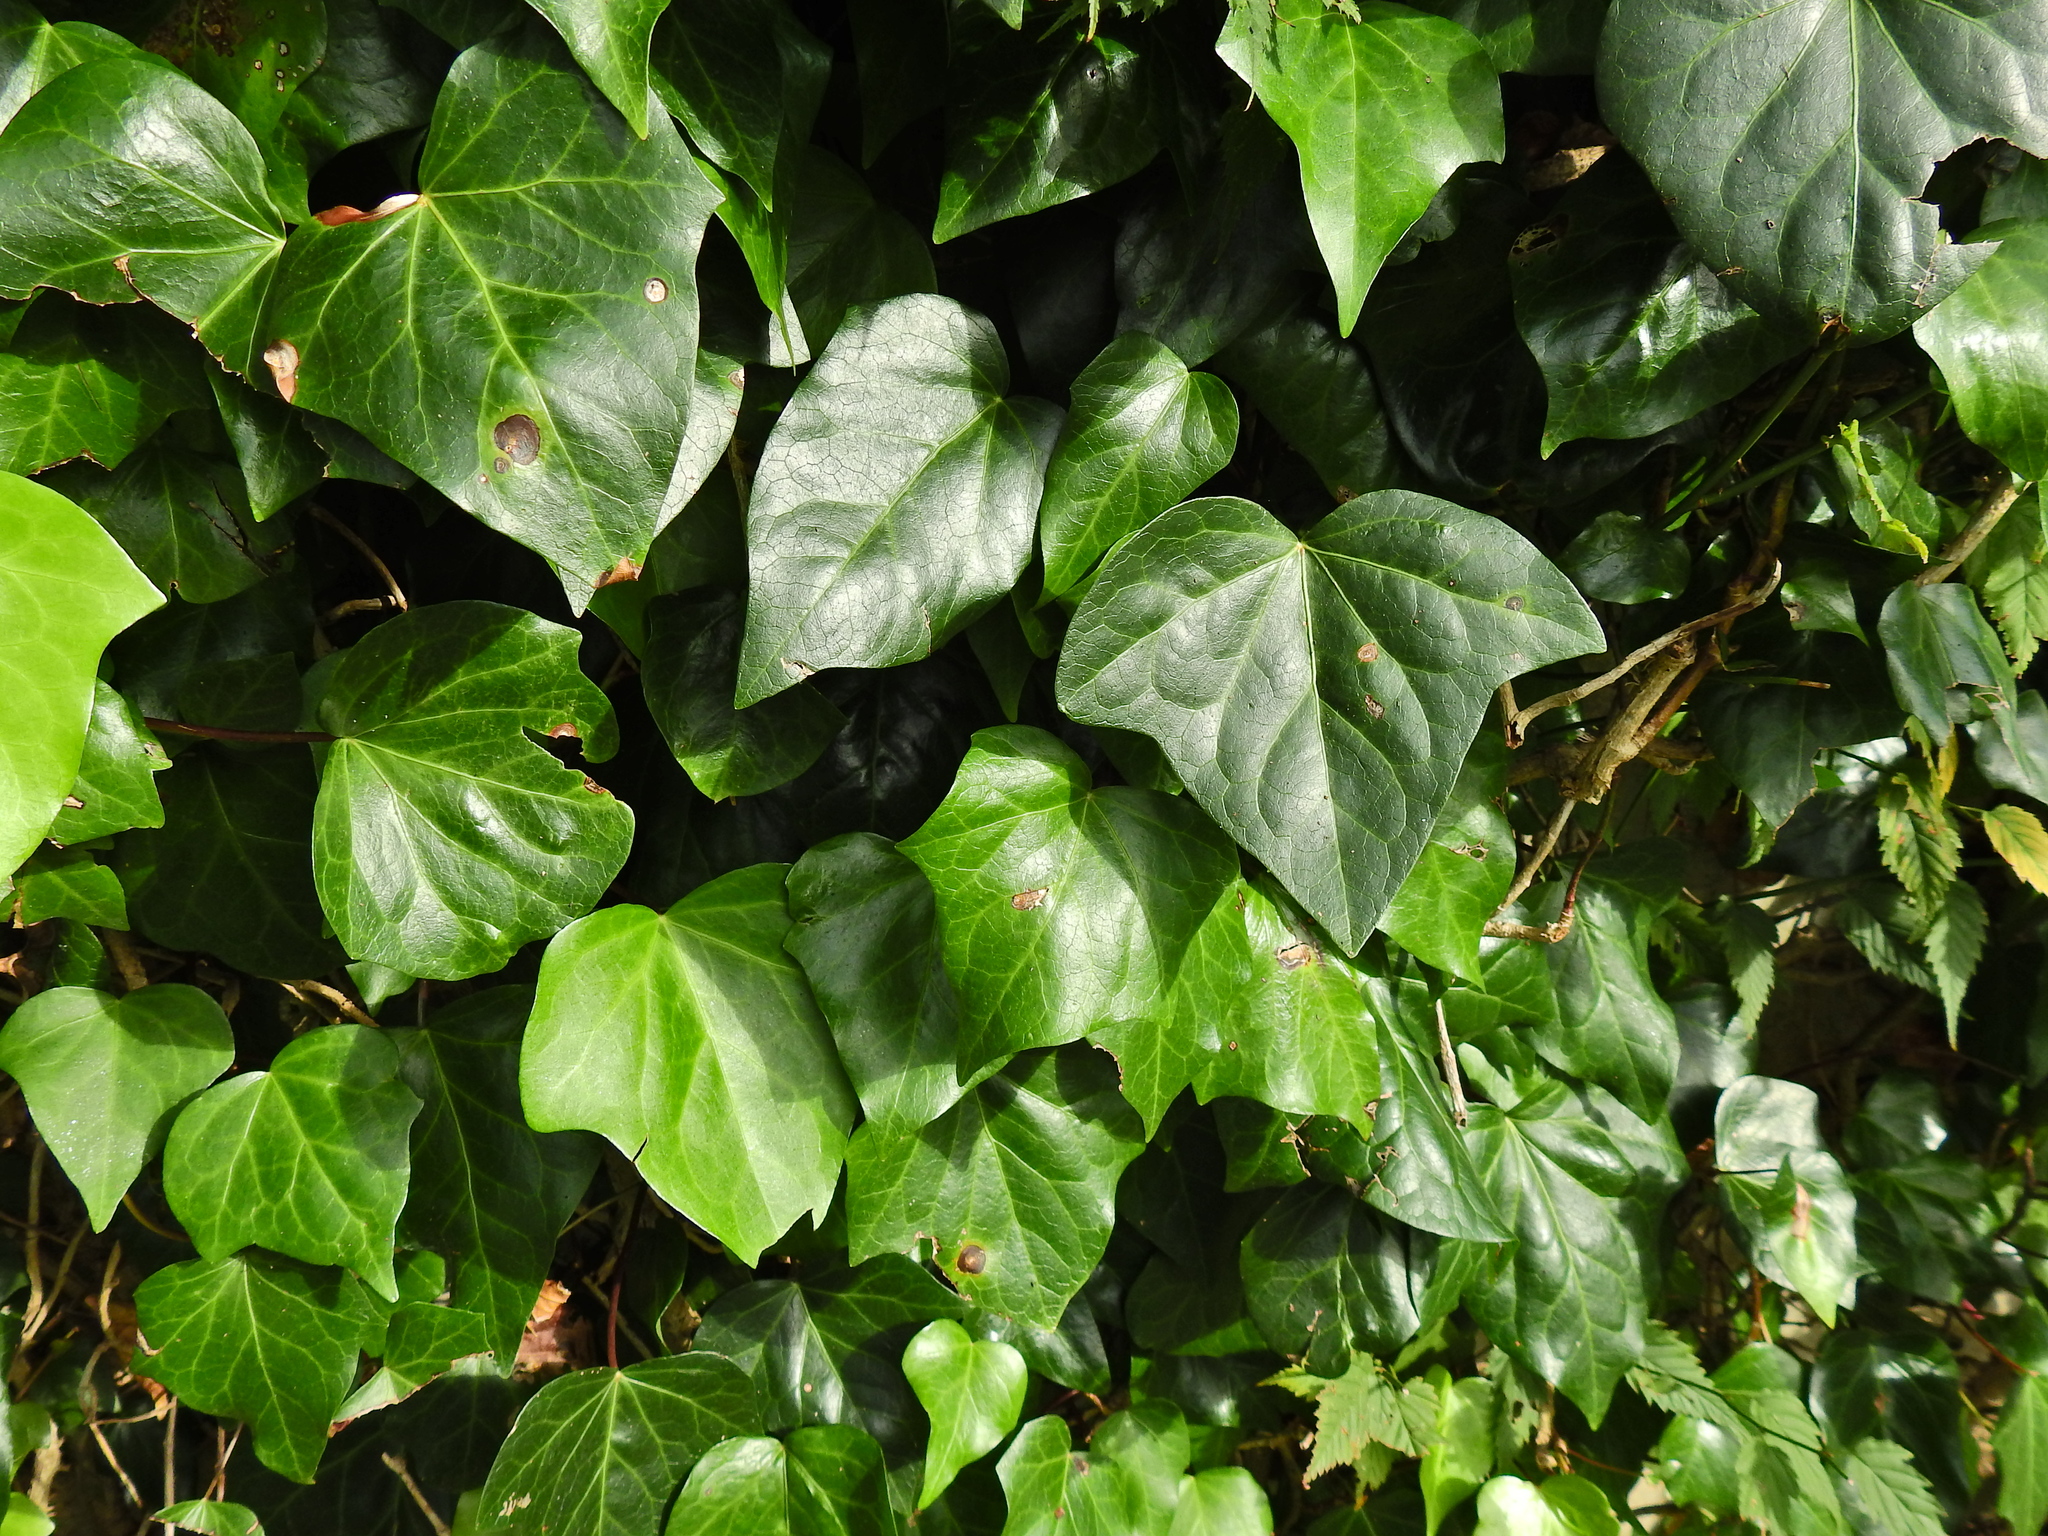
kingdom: Plantae
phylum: Tracheophyta
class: Magnoliopsida
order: Apiales
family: Araliaceae
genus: Hedera
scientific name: Hedera helix
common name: Ivy
